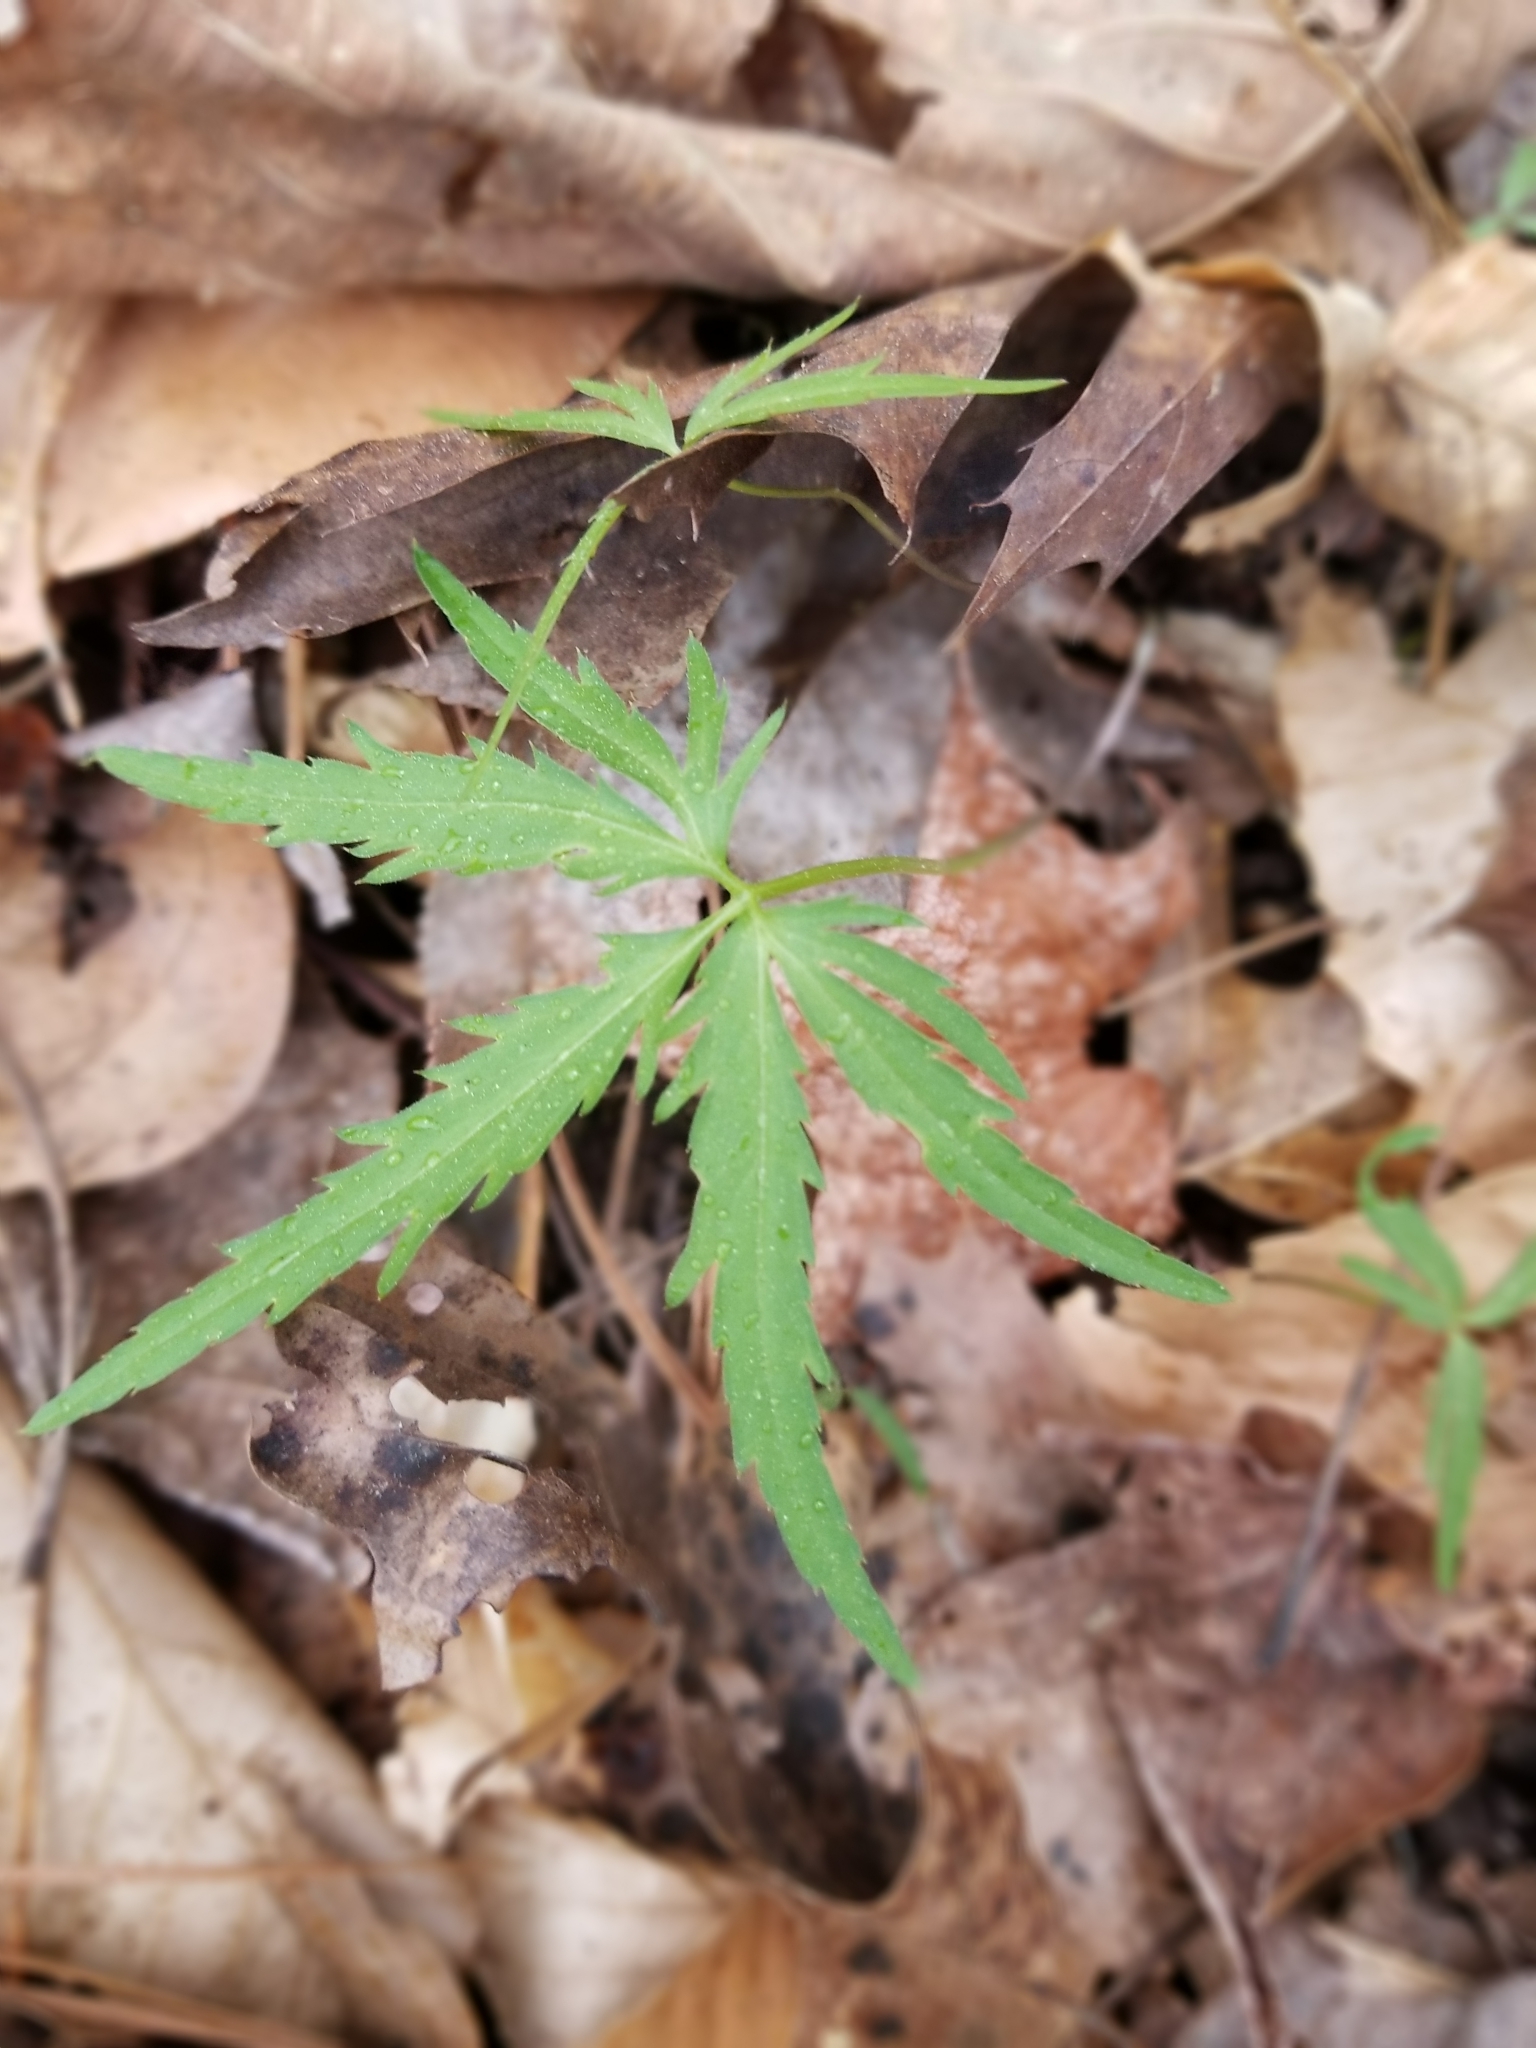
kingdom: Plantae
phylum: Tracheophyta
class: Magnoliopsida
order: Brassicales
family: Brassicaceae
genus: Cardamine
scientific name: Cardamine concatenata
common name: Cut-leaf toothcup
